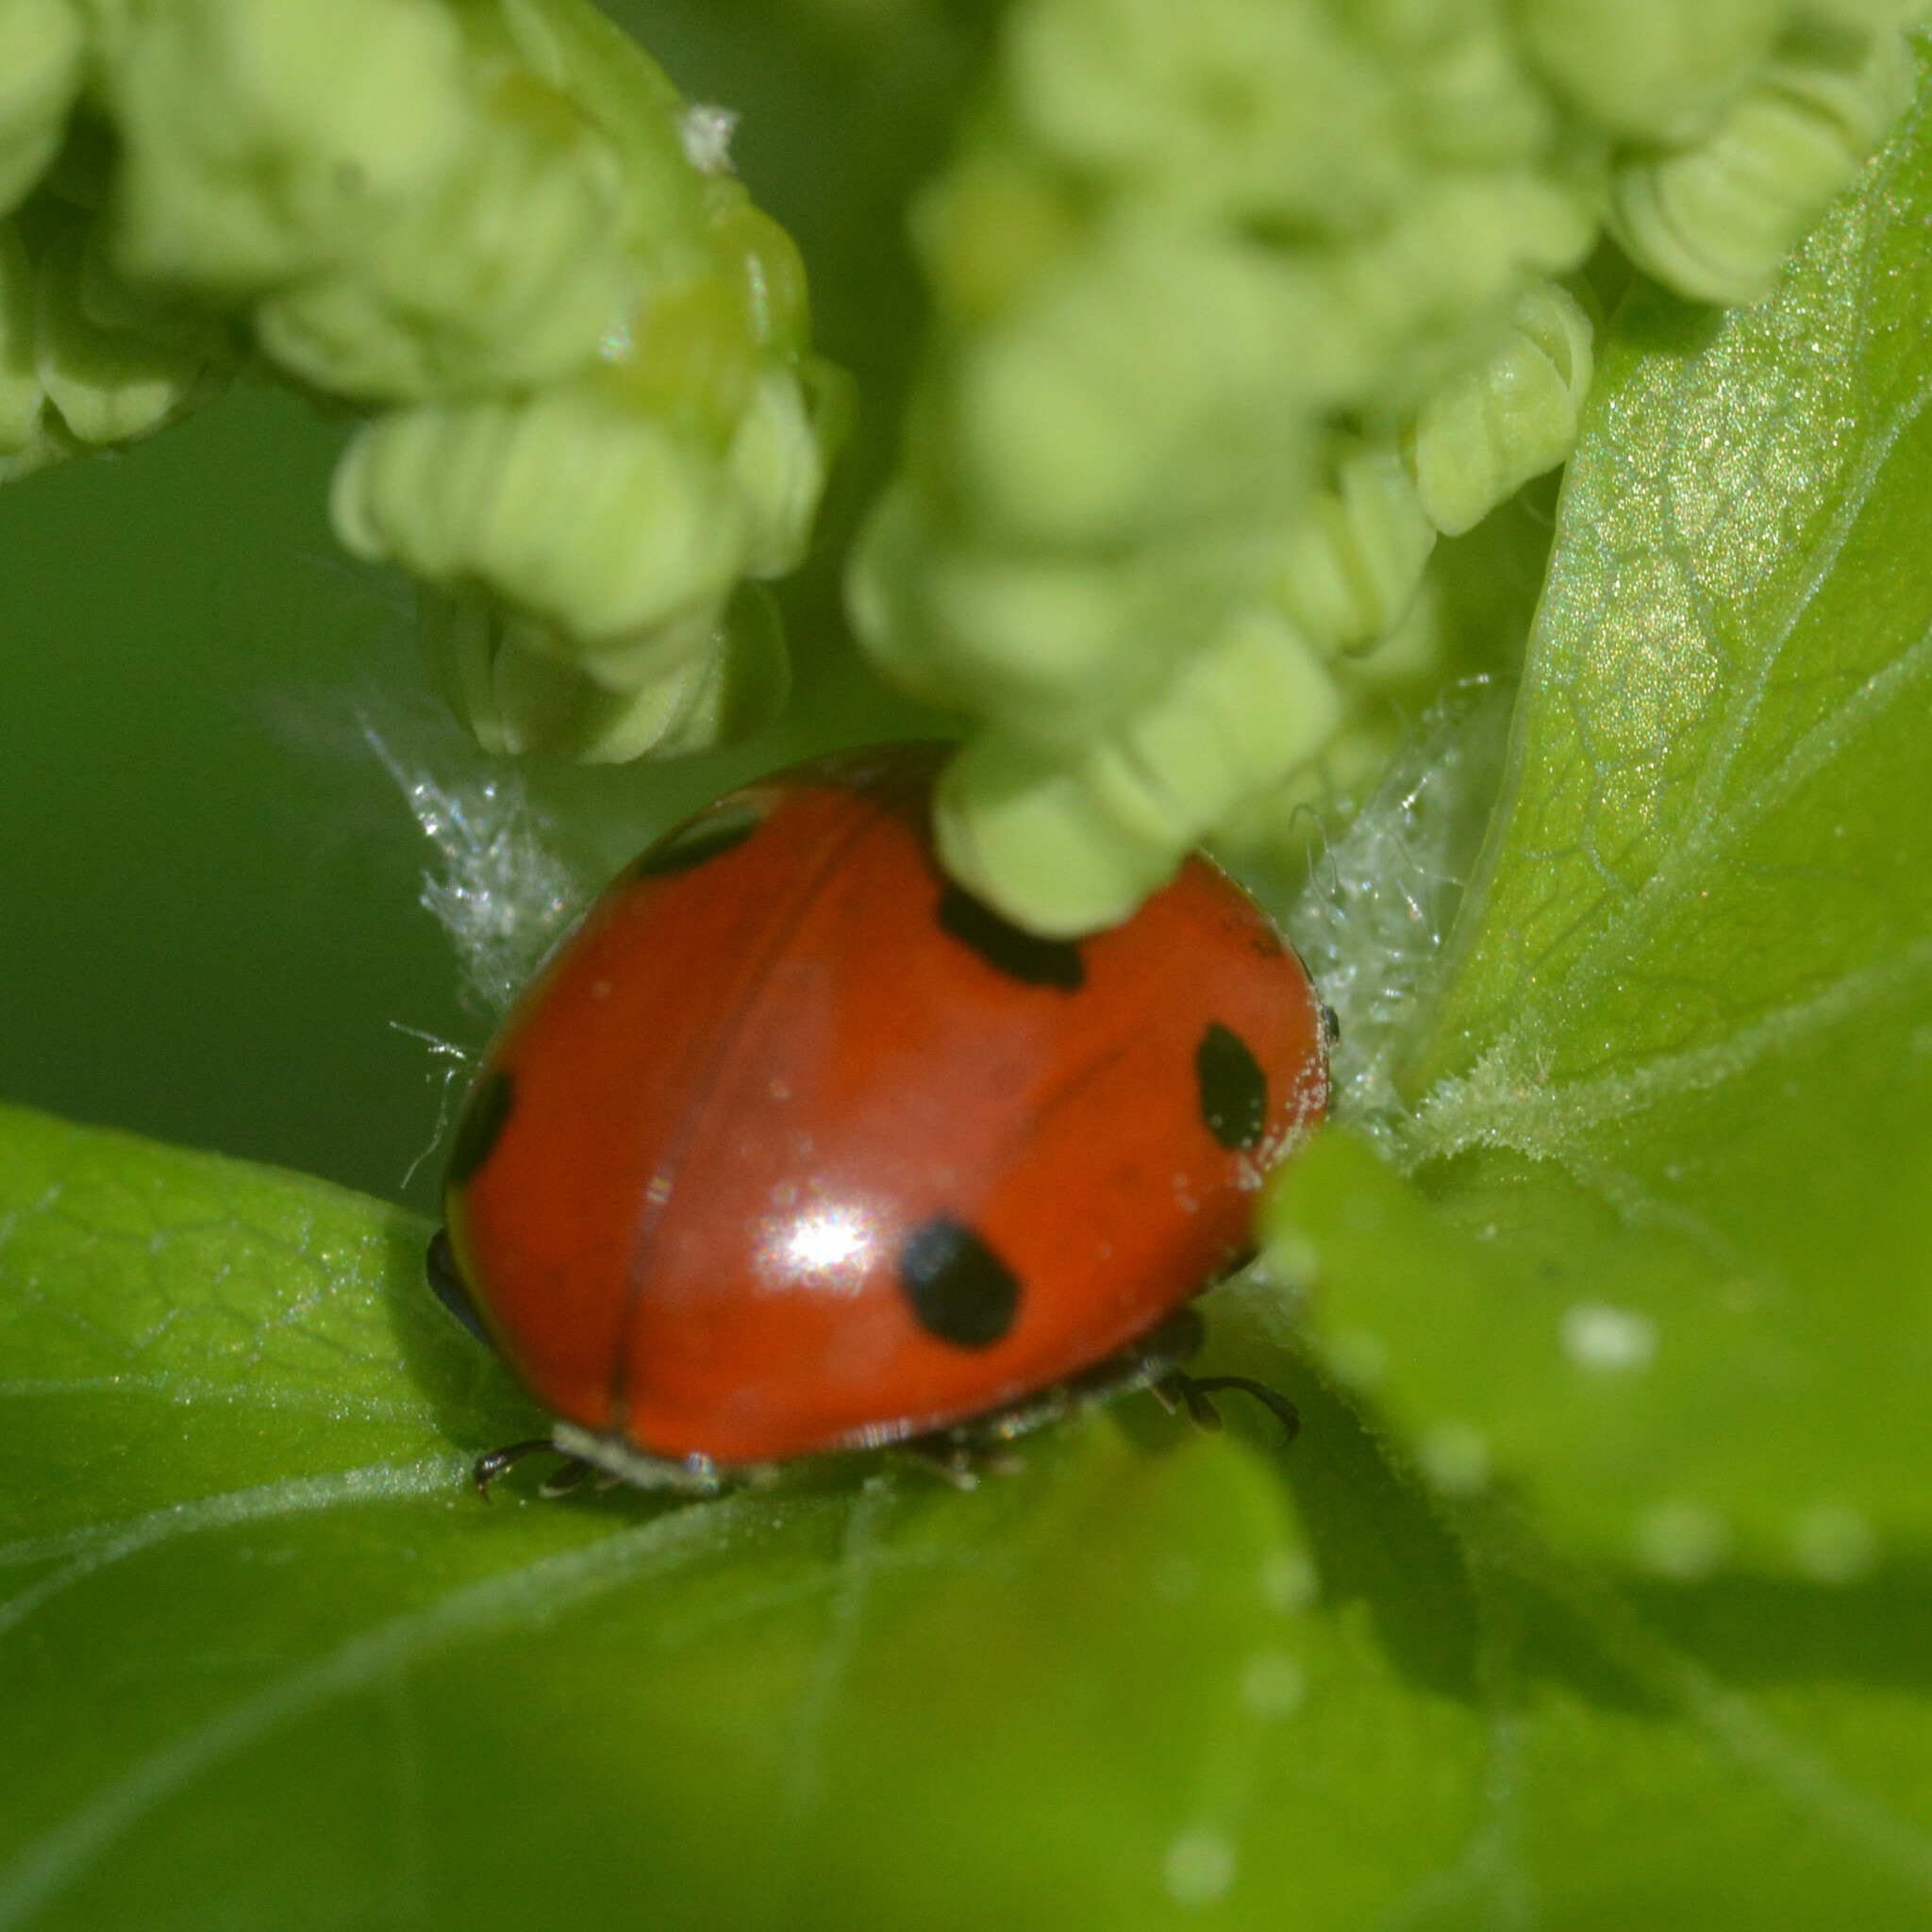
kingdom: Animalia
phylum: Arthropoda
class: Insecta
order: Coleoptera
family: Coccinellidae
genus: Coccinella
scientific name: Coccinella septempunctata
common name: Sevenspotted lady beetle
